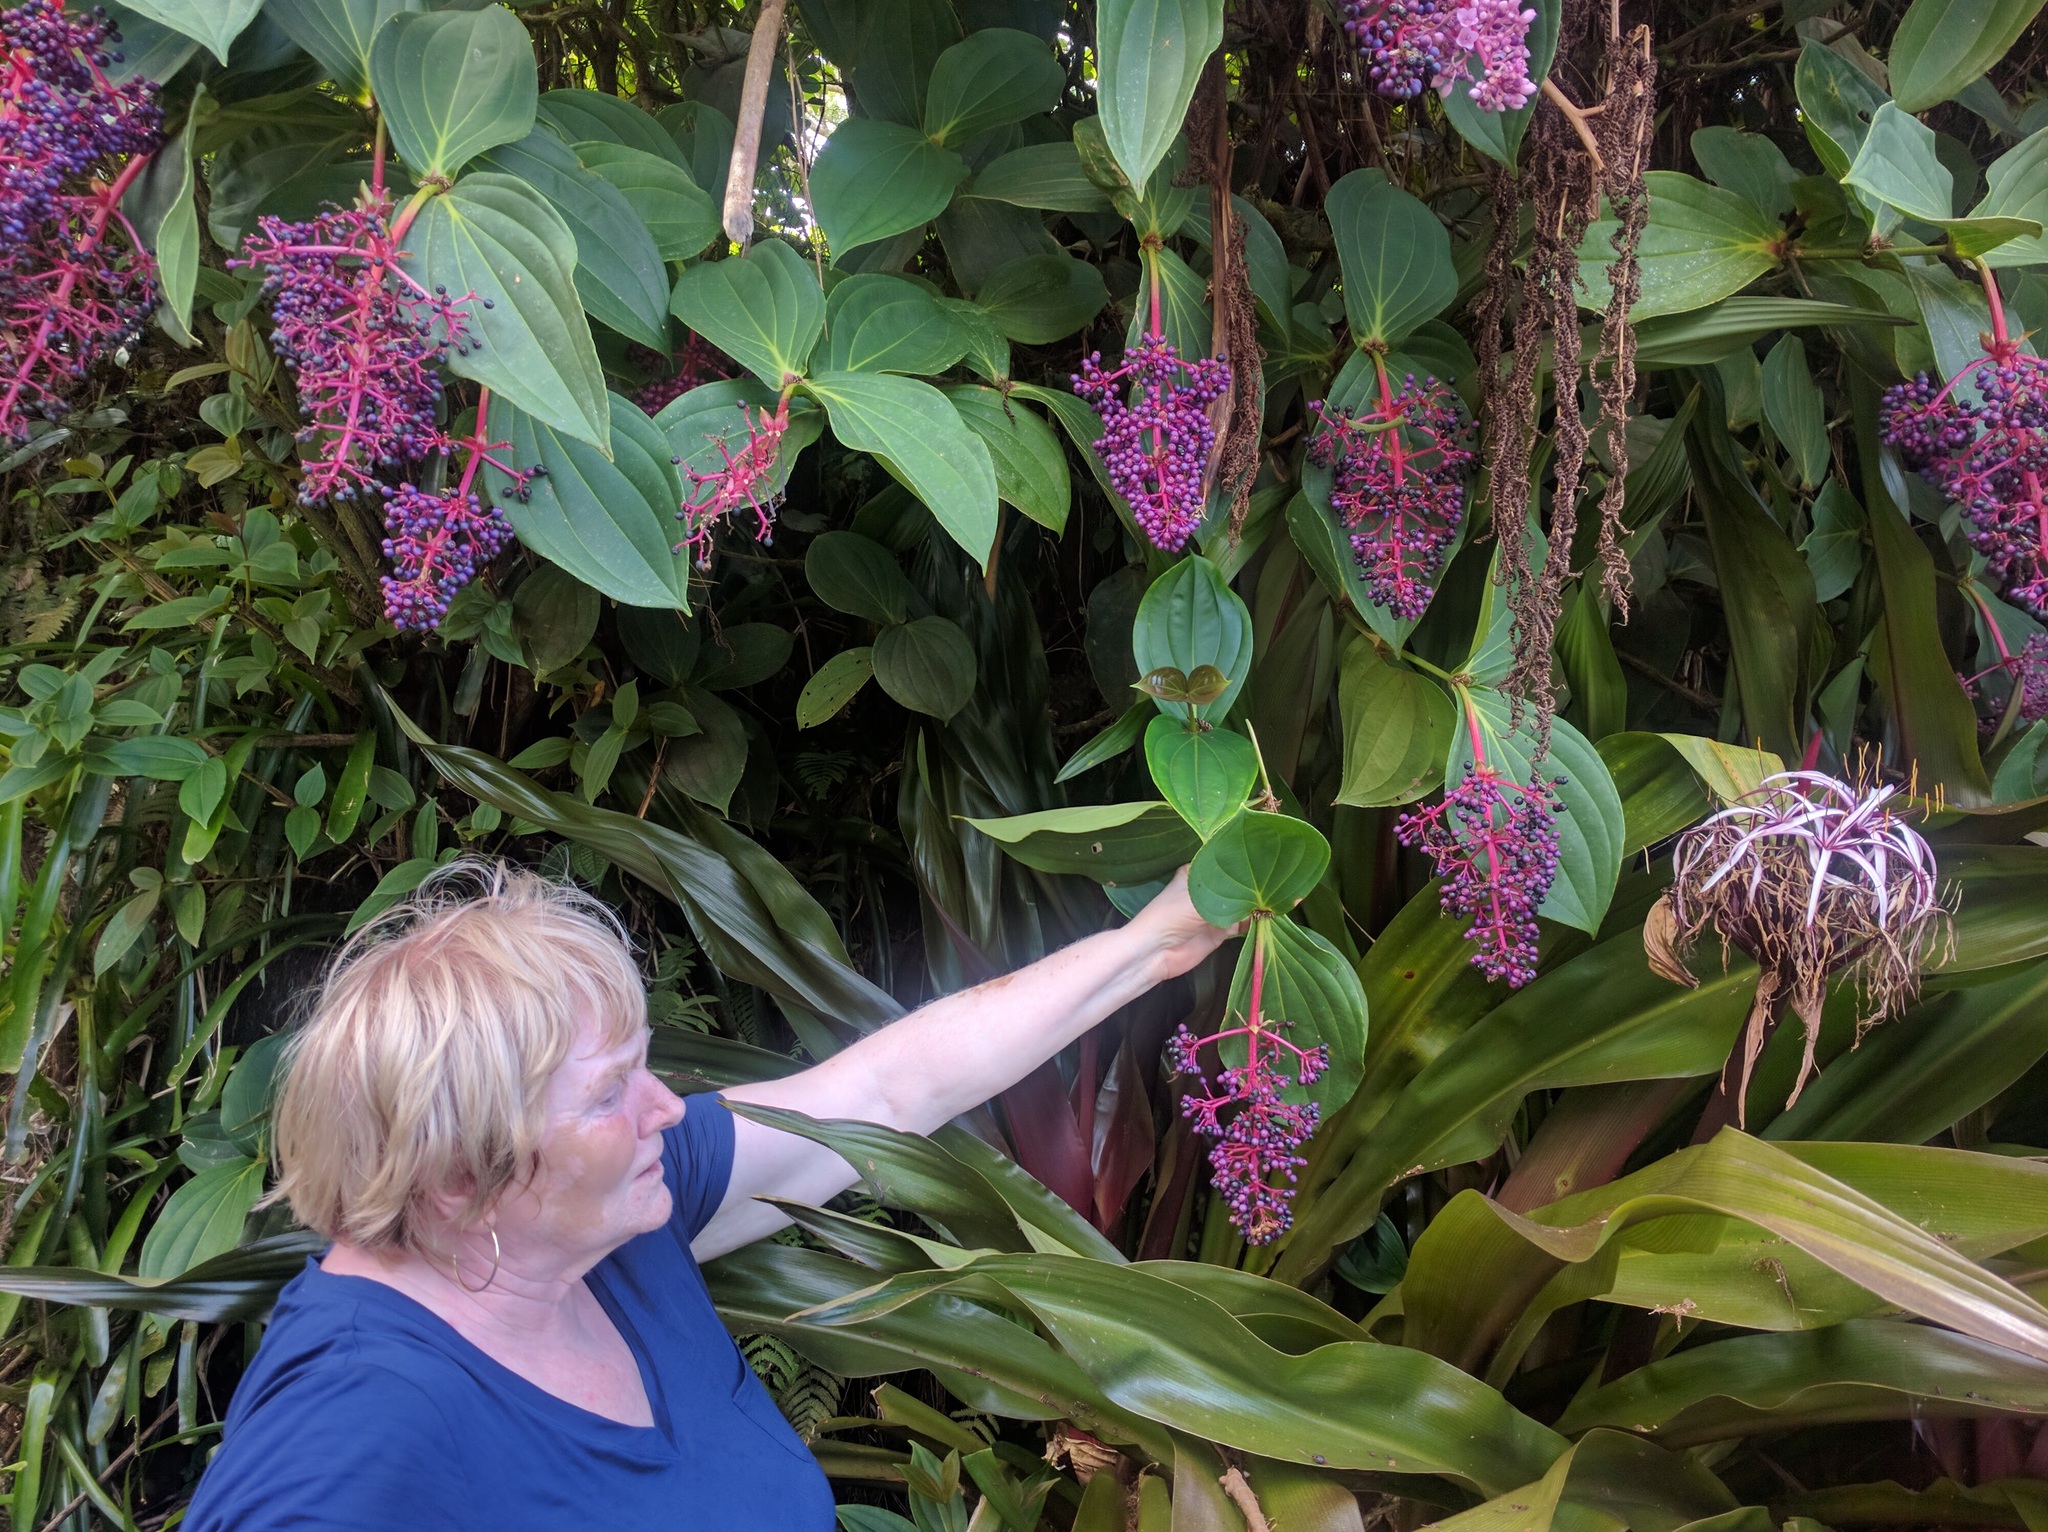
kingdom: Plantae
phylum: Tracheophyta
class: Magnoliopsida
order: Myrtales
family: Melastomataceae
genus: Medinilla
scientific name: Medinilla cumingii
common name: Chandelier tree
